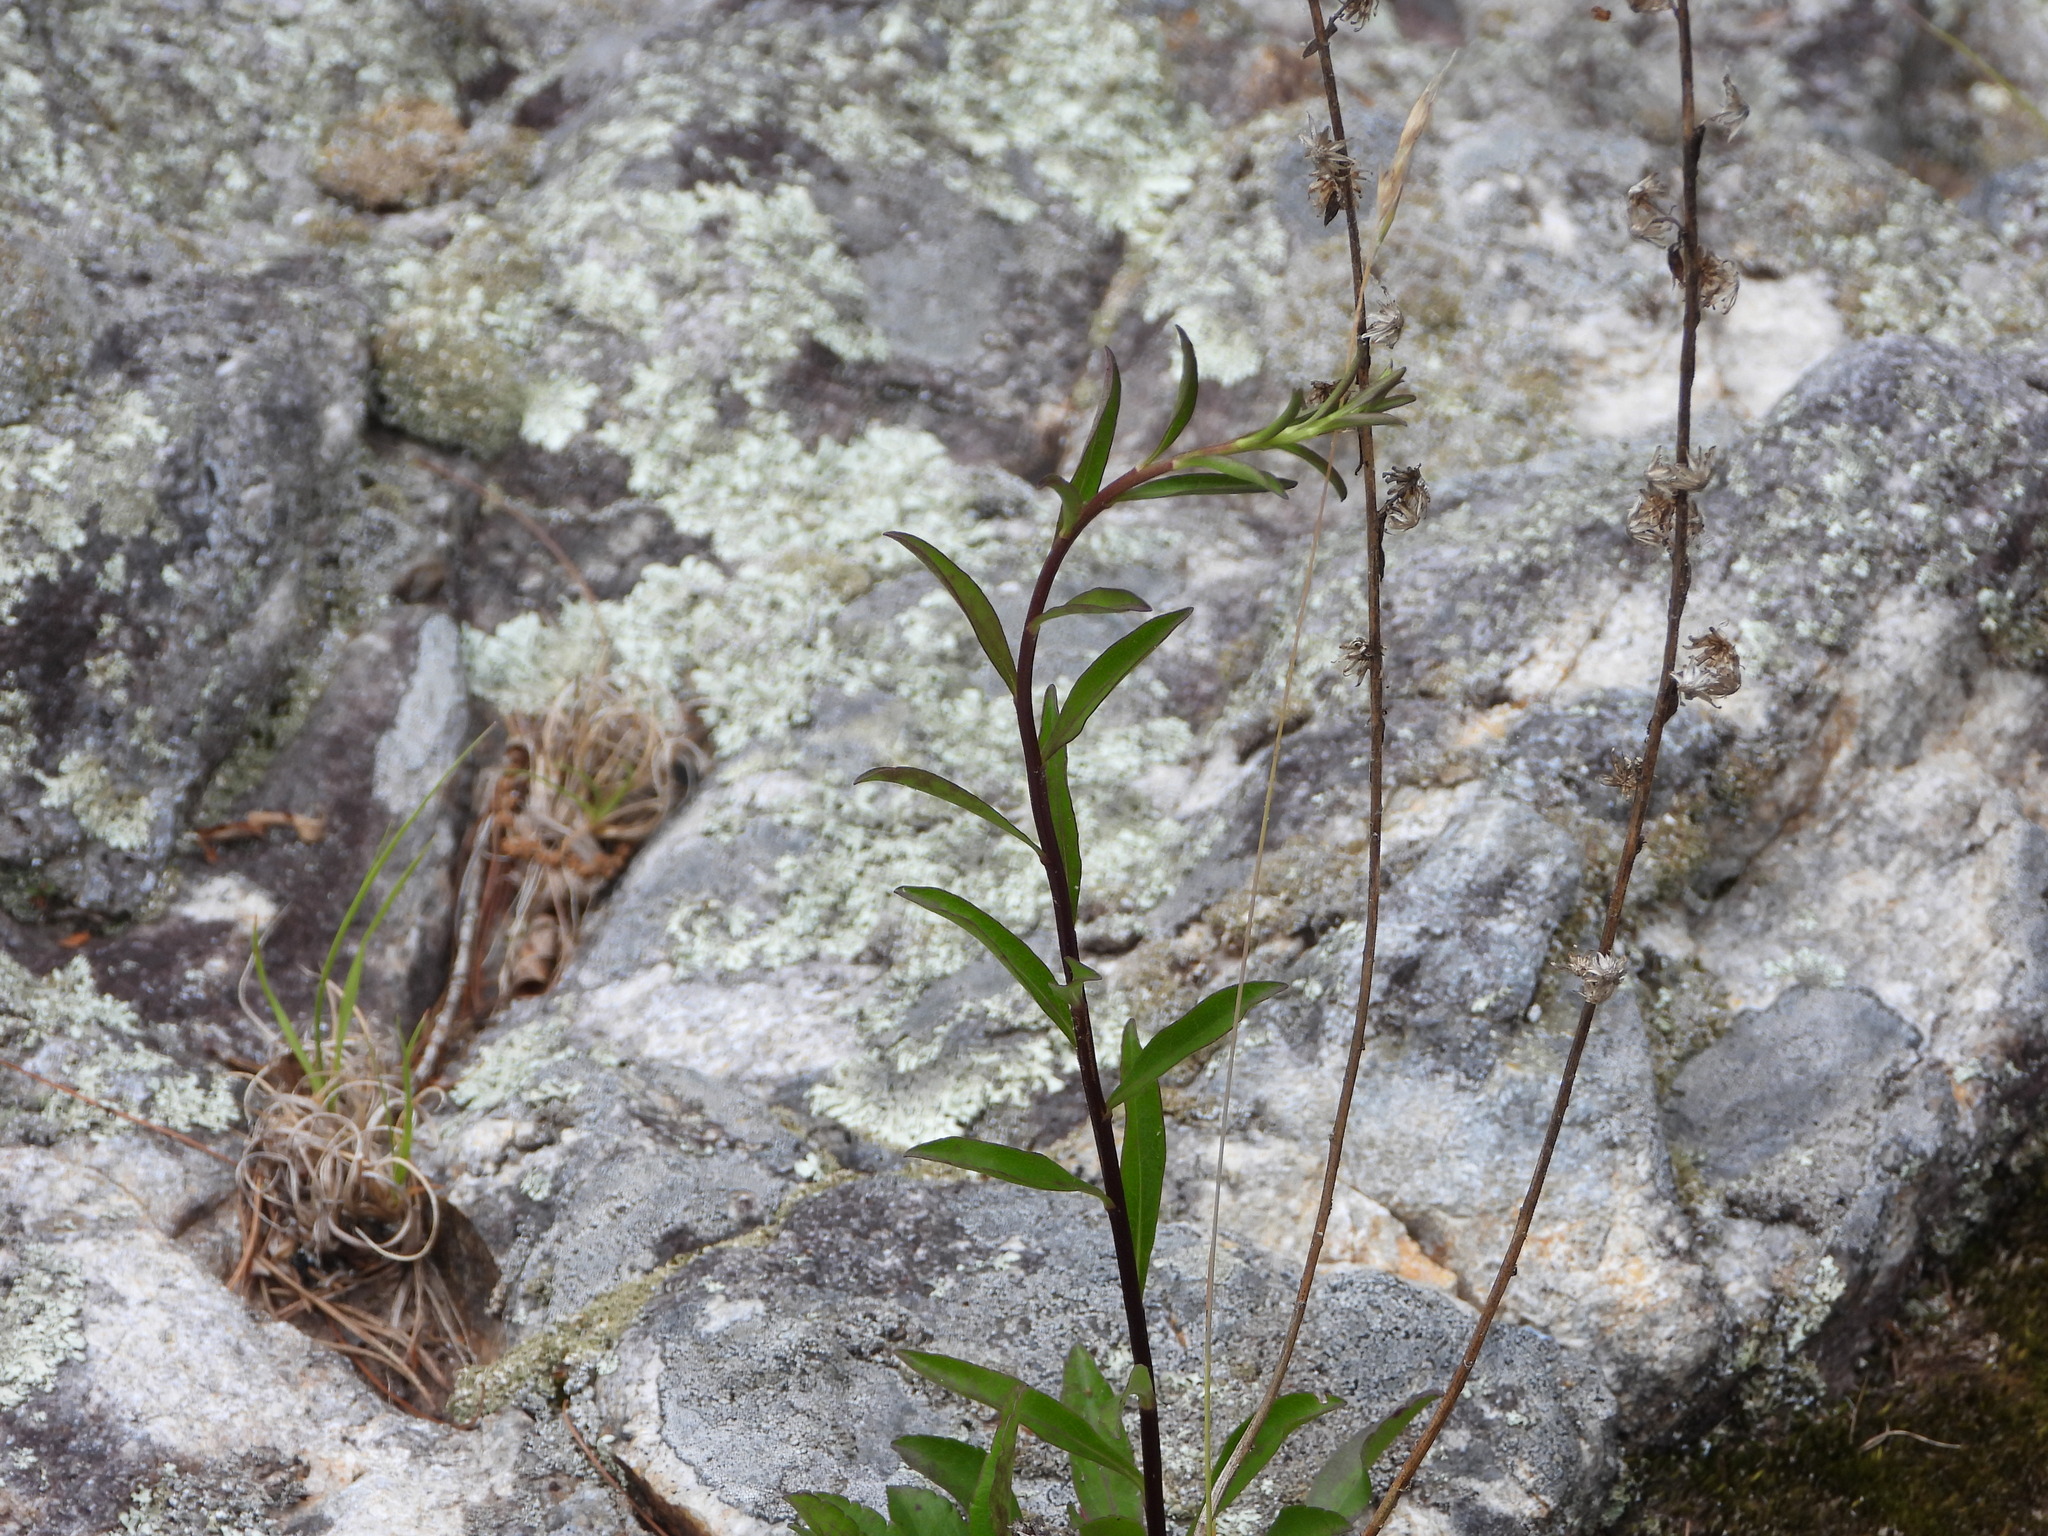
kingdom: Plantae
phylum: Tracheophyta
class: Magnoliopsida
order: Asterales
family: Asteraceae
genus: Solidago
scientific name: Solidago arenicola
